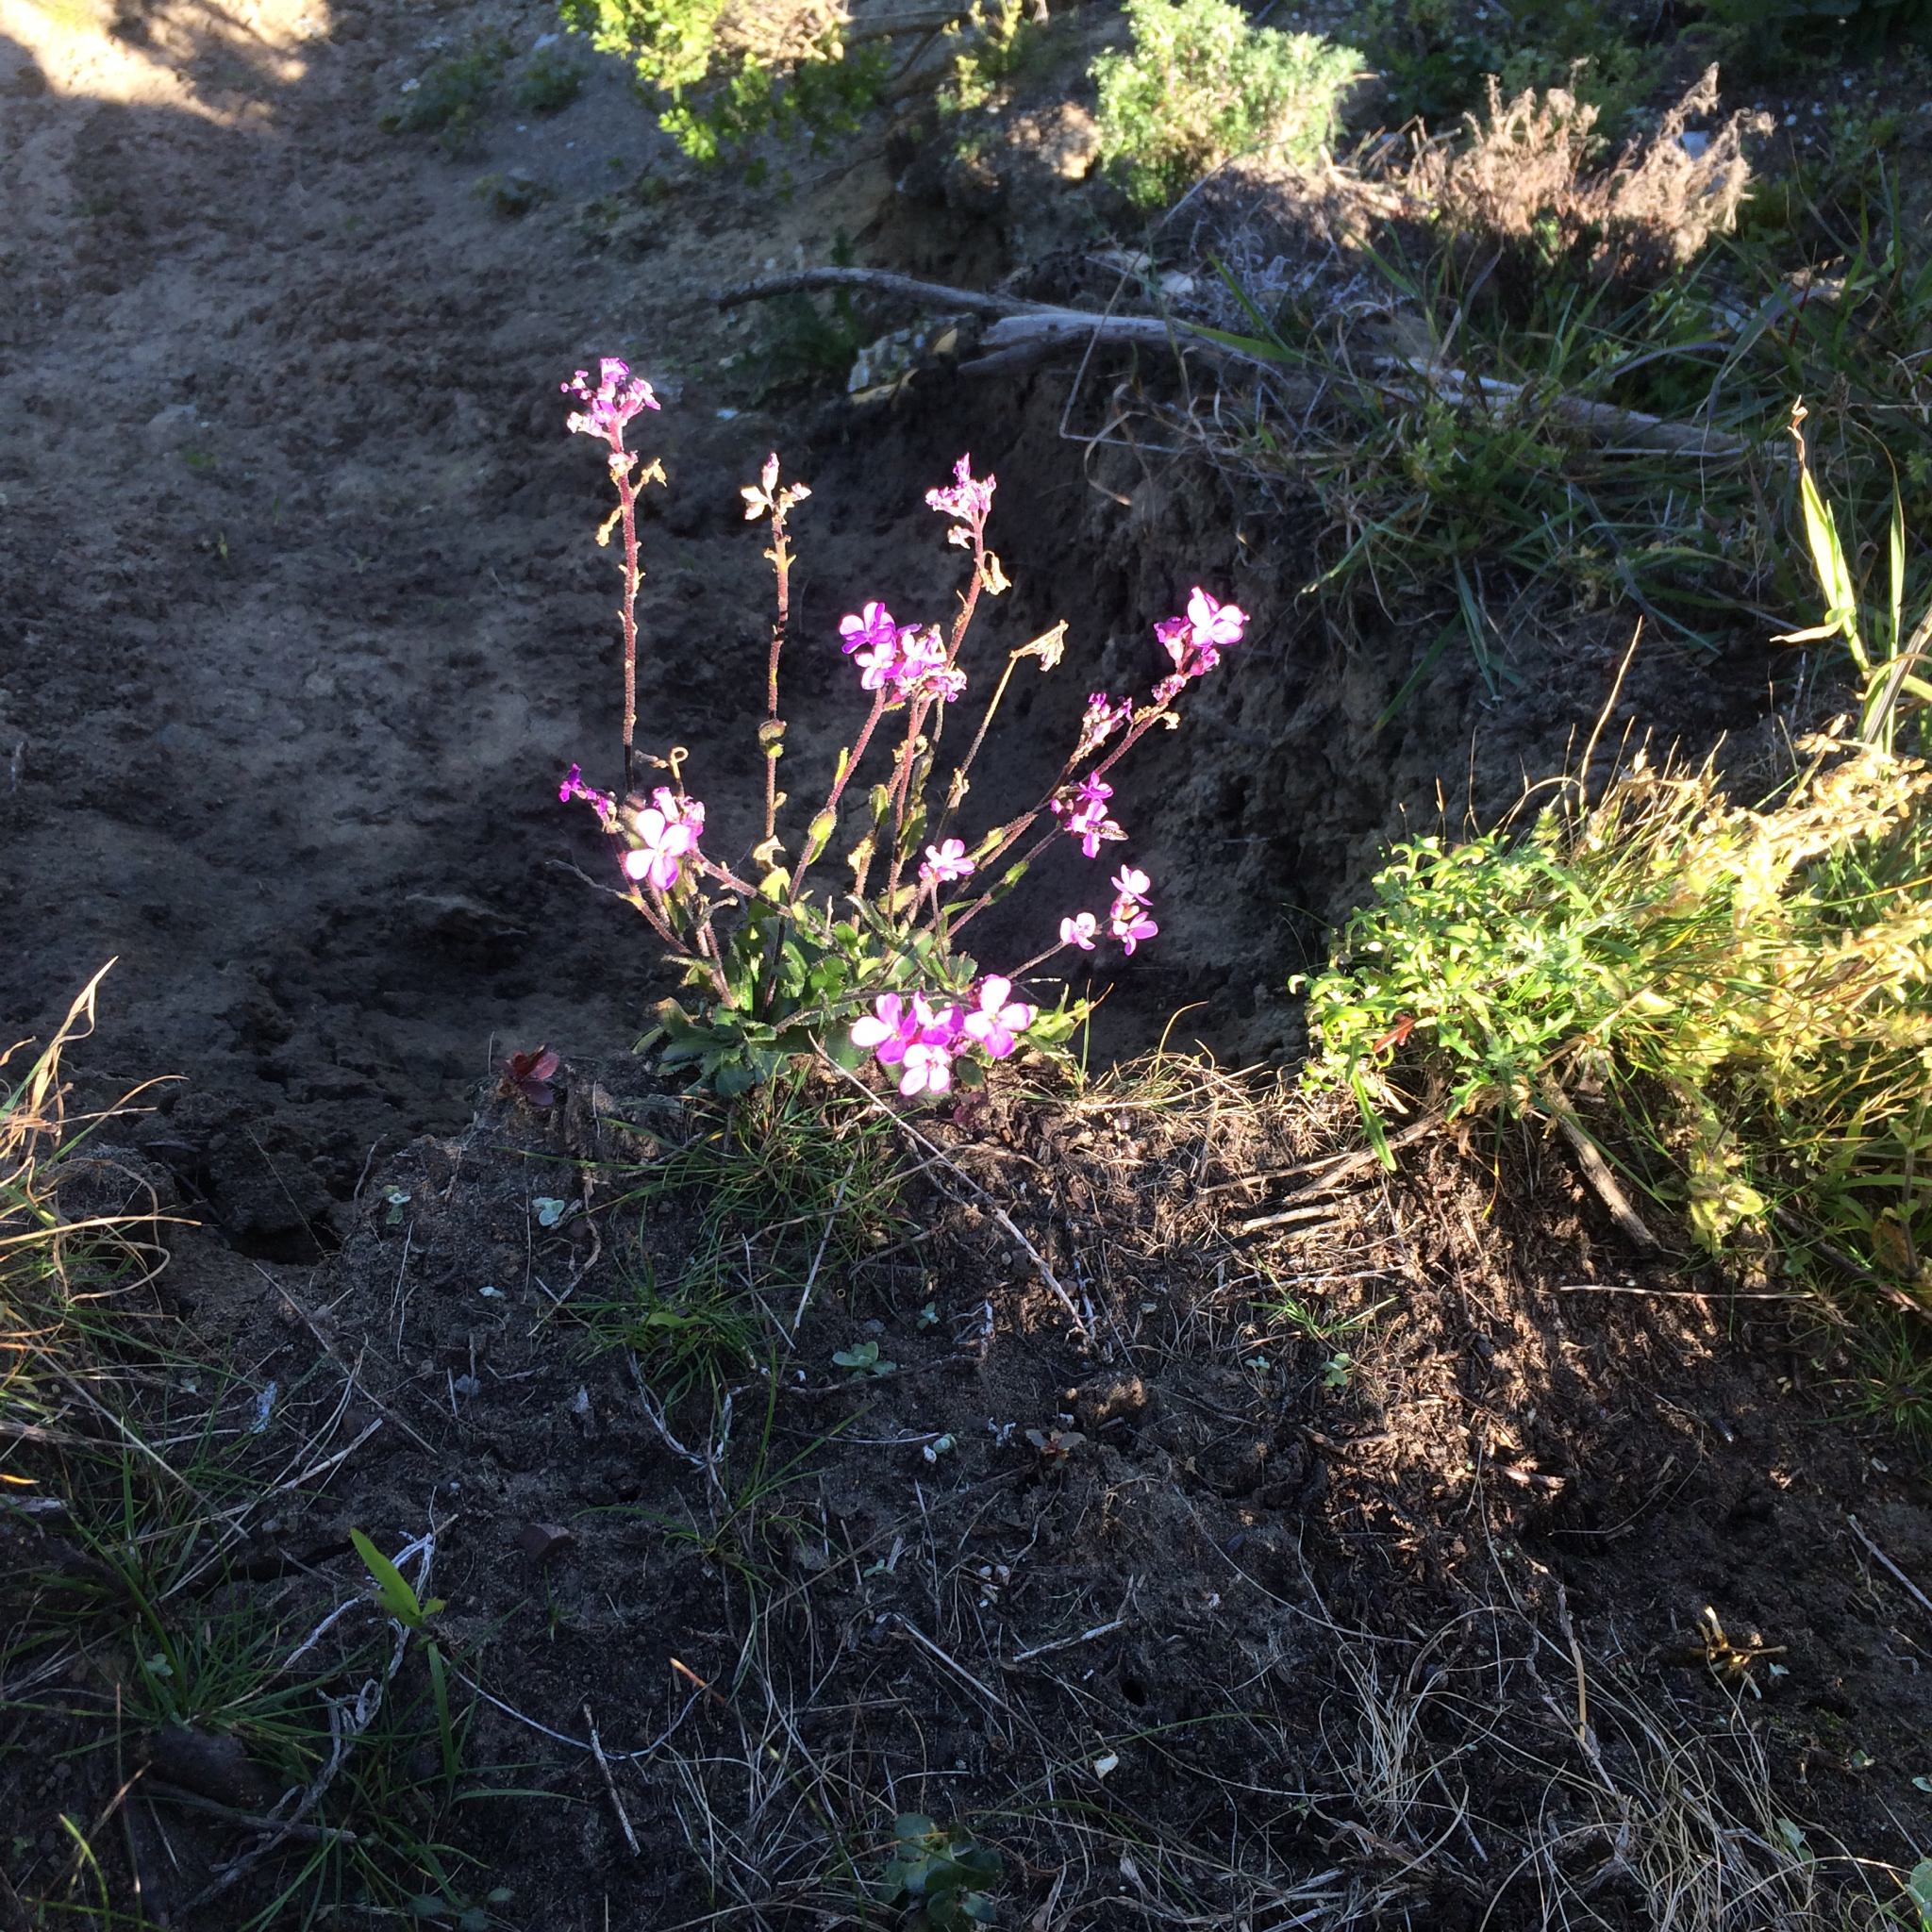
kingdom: Plantae
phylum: Tracheophyta
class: Magnoliopsida
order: Brassicales
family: Brassicaceae
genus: Arabis
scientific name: Arabis blepharophylla
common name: Rose rockcress
